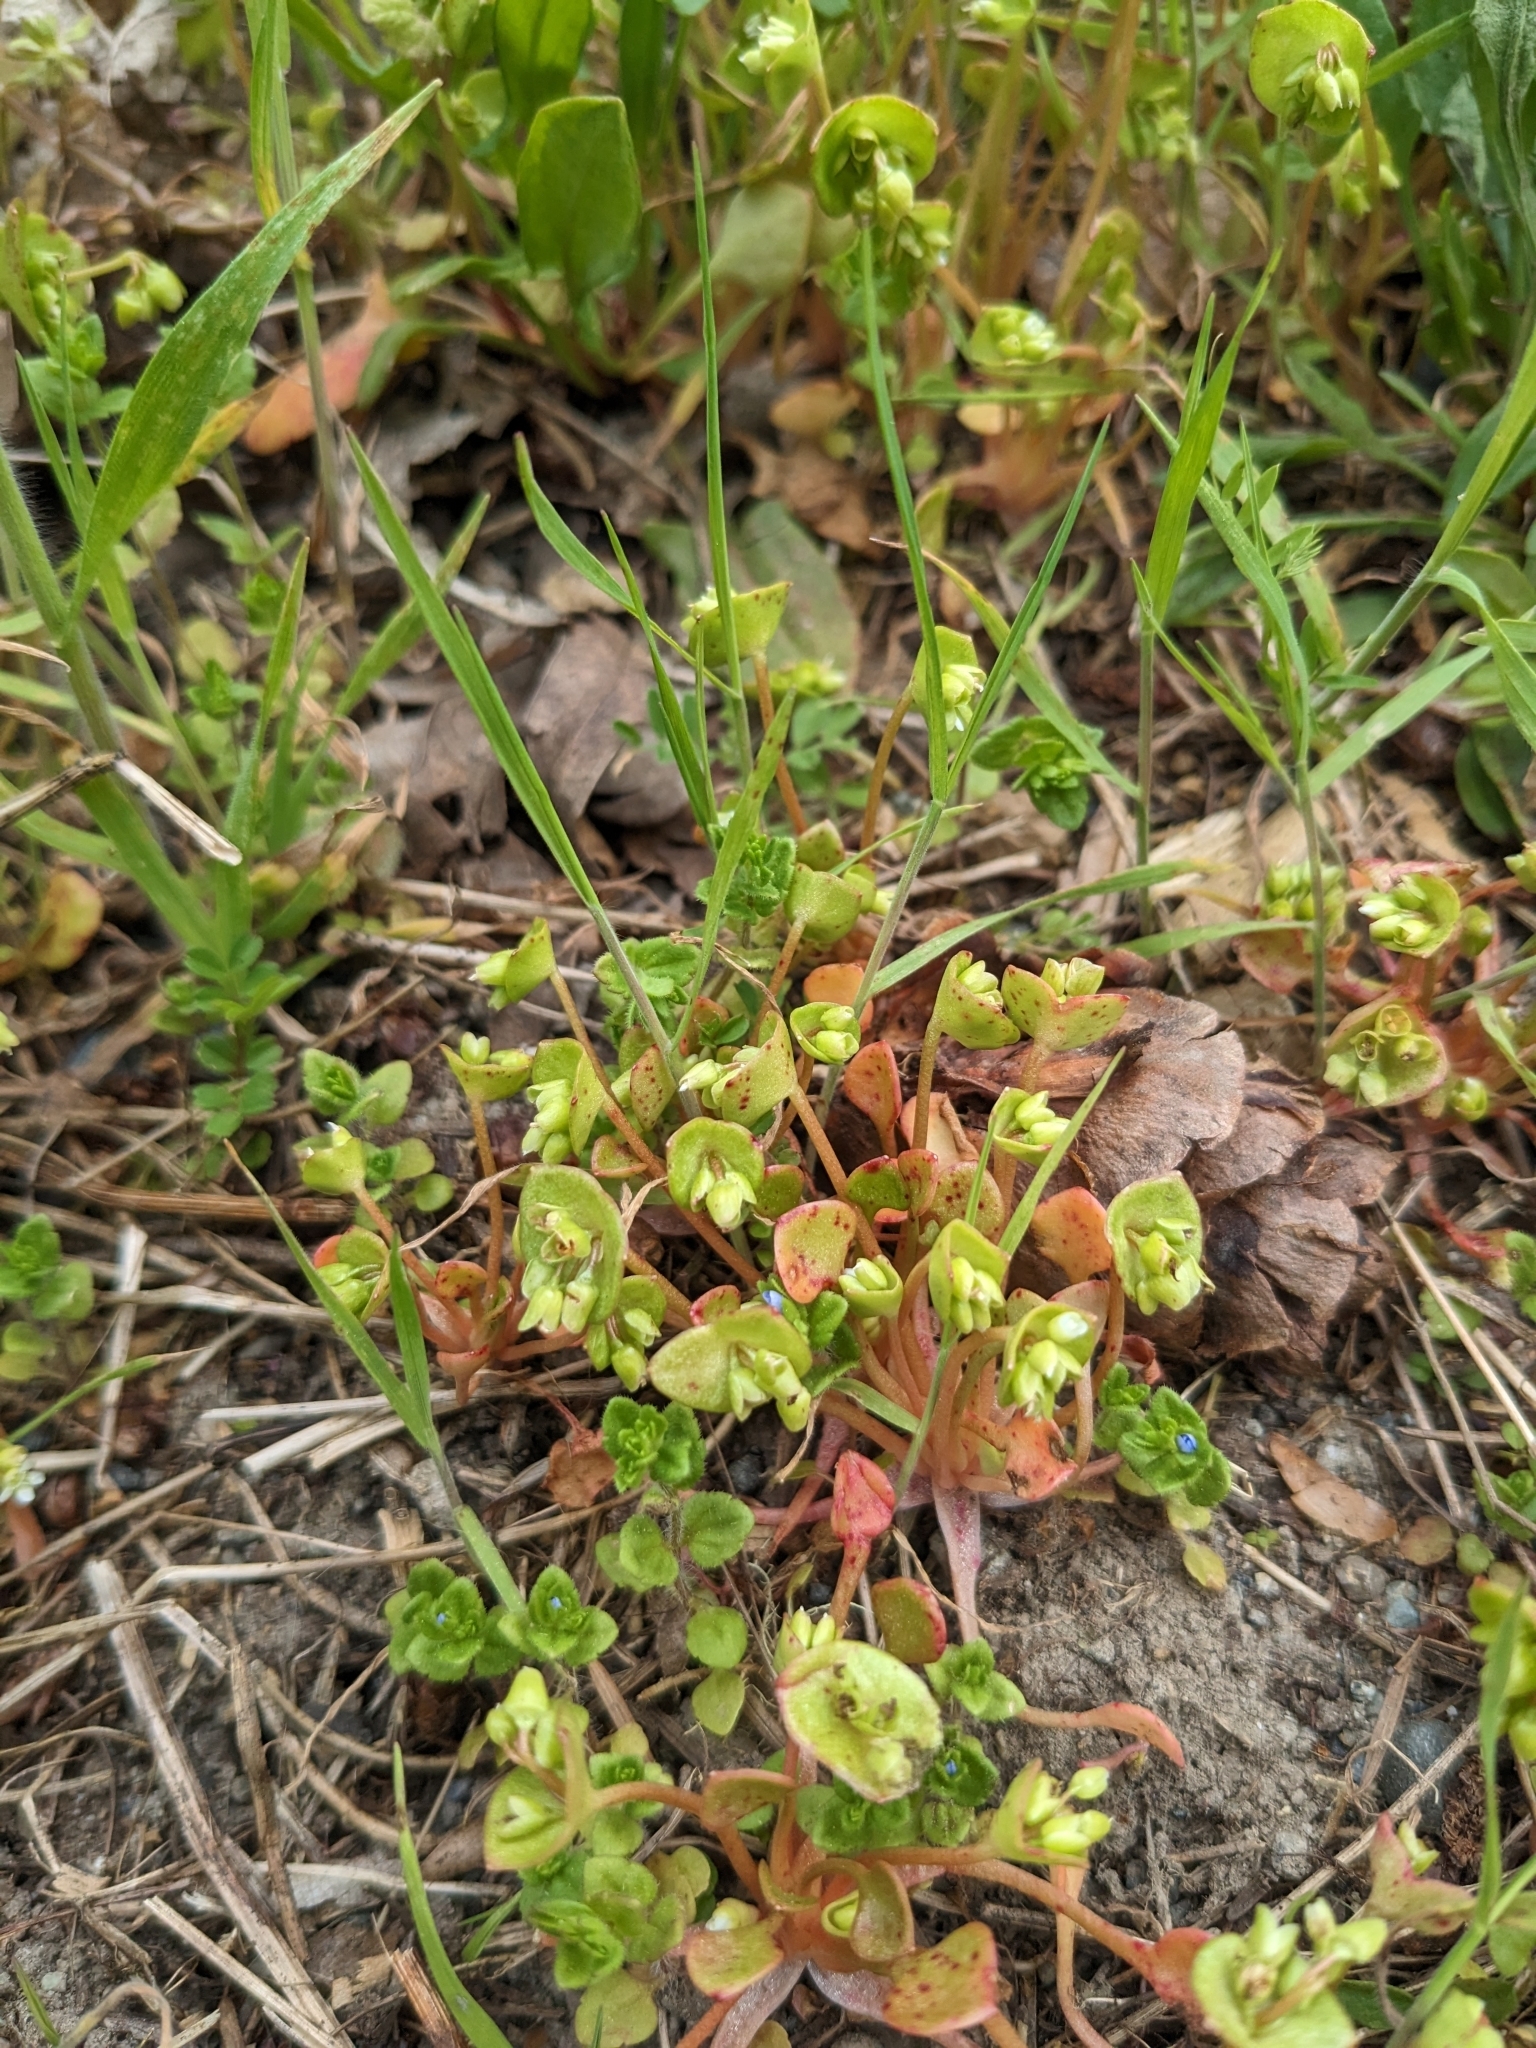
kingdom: Plantae
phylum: Tracheophyta
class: Magnoliopsida
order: Caryophyllales
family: Montiaceae
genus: Claytonia
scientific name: Claytonia rubra
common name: Erubescent miner's-lettuce
